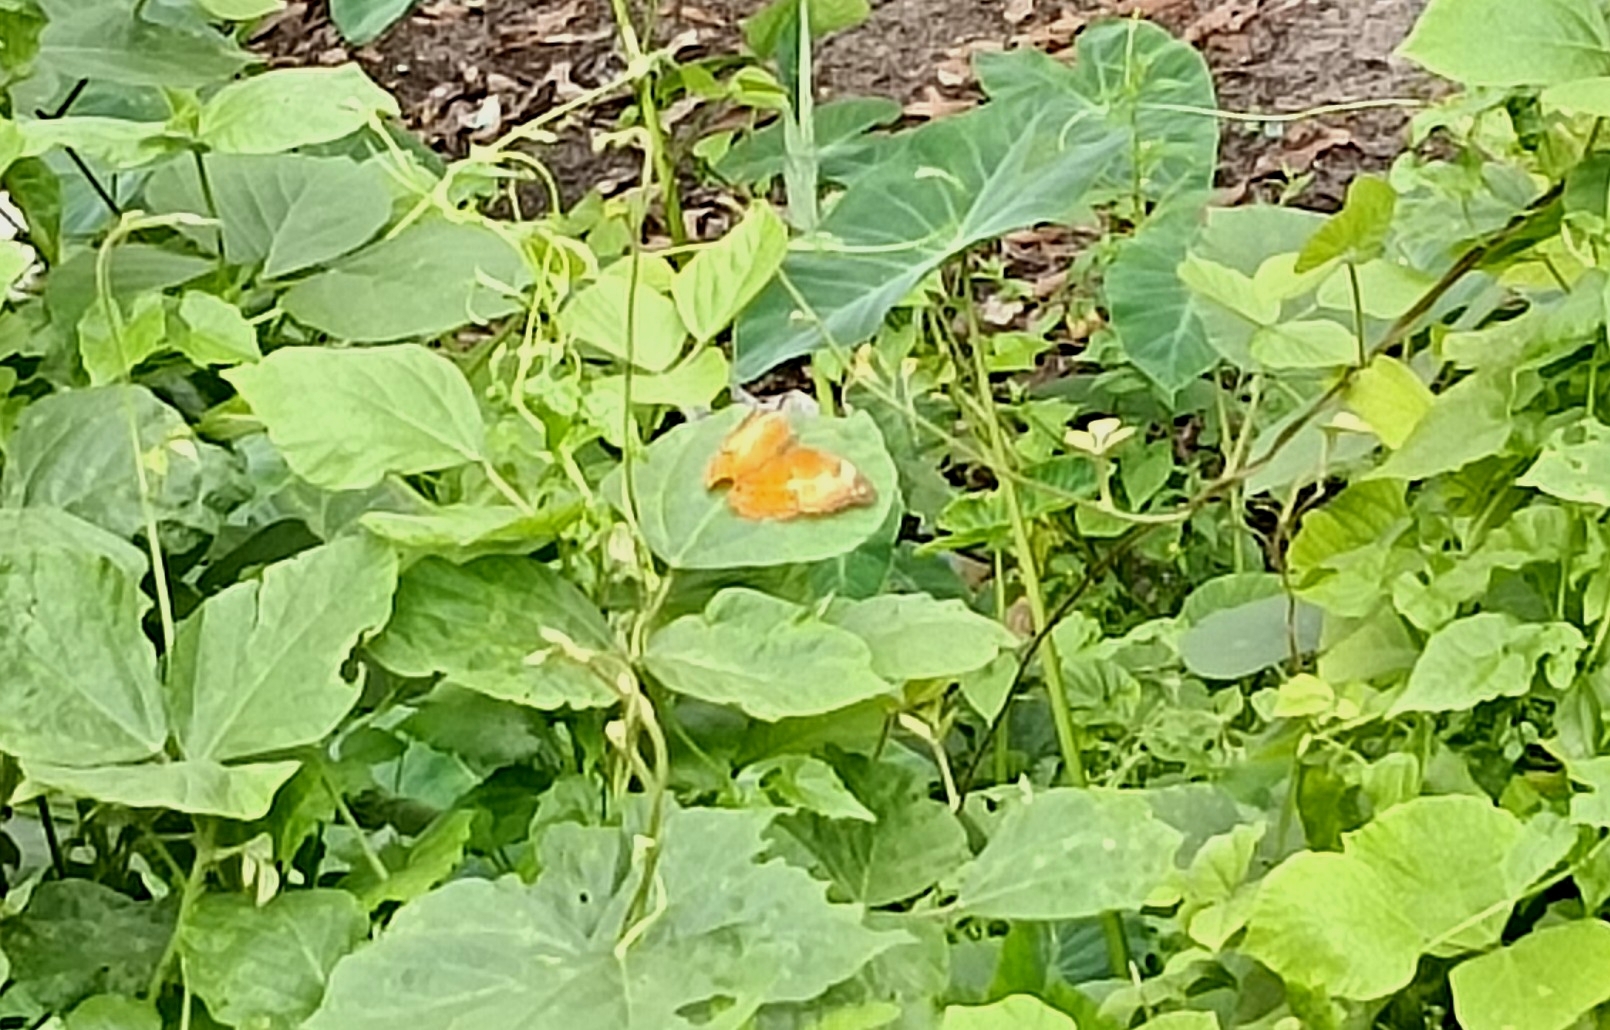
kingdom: Animalia
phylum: Arthropoda
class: Insecta
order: Lepidoptera
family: Nymphalidae
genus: Cirrochroa
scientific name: Cirrochroa thais
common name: Tamil yeoman
